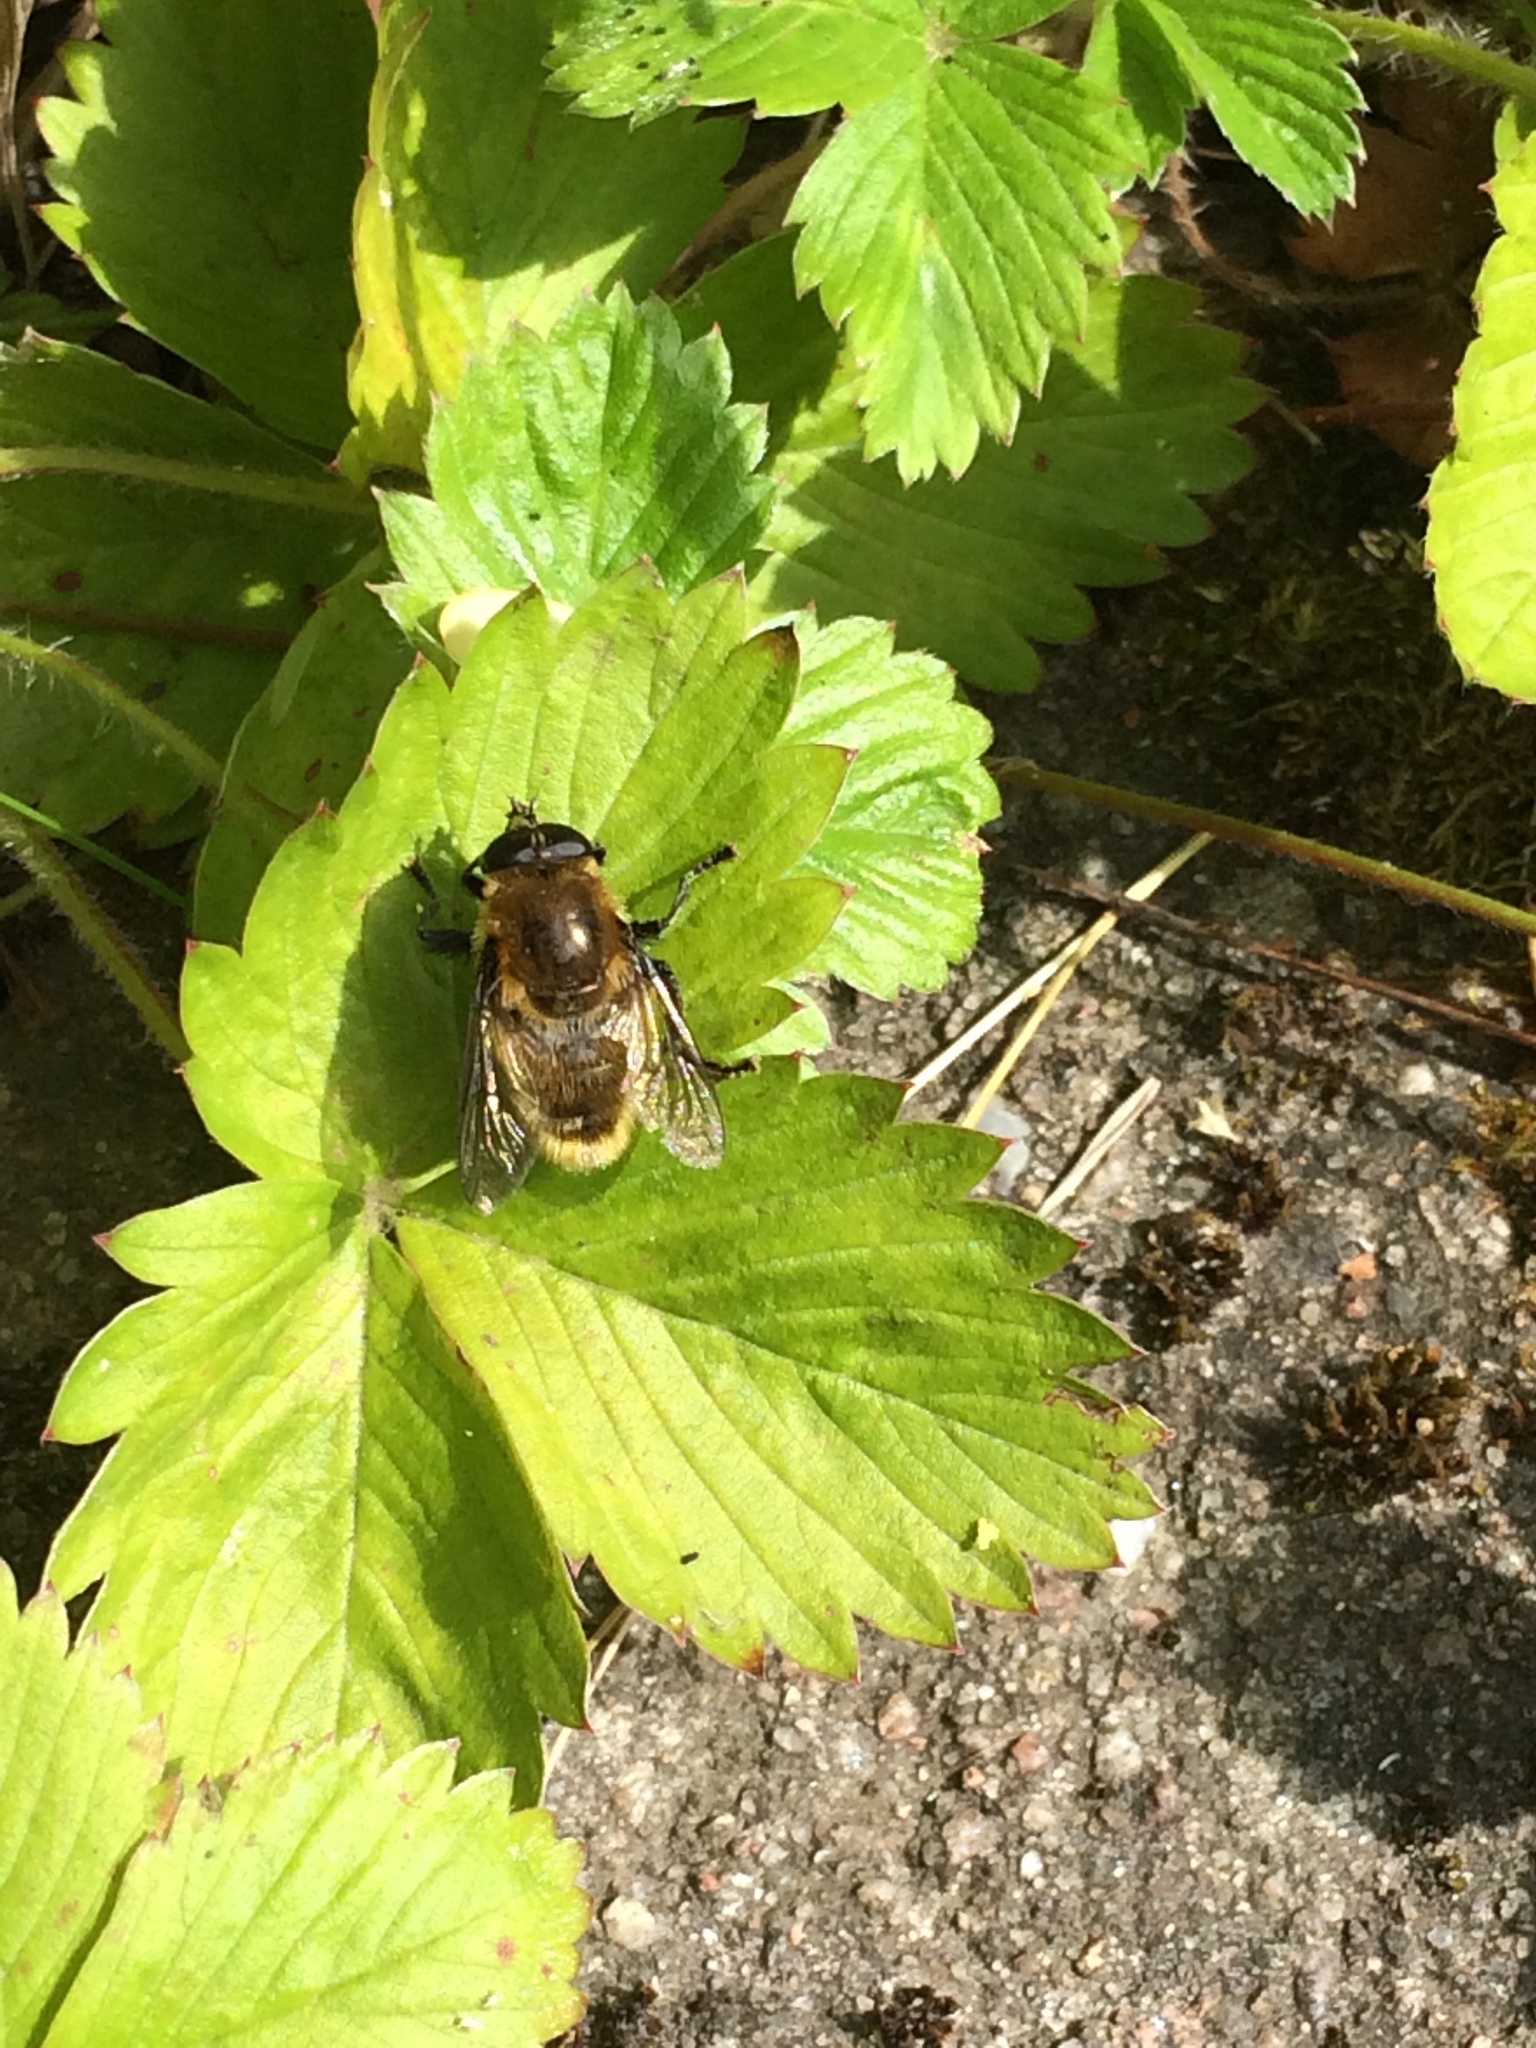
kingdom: Animalia
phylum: Arthropoda
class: Insecta
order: Diptera
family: Syrphidae
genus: Merodon
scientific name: Merodon equestris
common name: Greater bulb-fly
